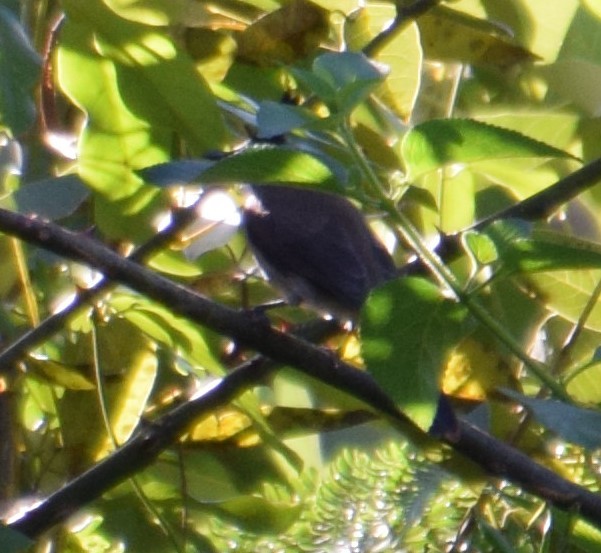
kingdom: Animalia
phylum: Chordata
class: Aves
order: Passeriformes
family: Pycnonotidae
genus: Pycnonotus
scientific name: Pycnonotus jocosus
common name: Red-whiskered bulbul
